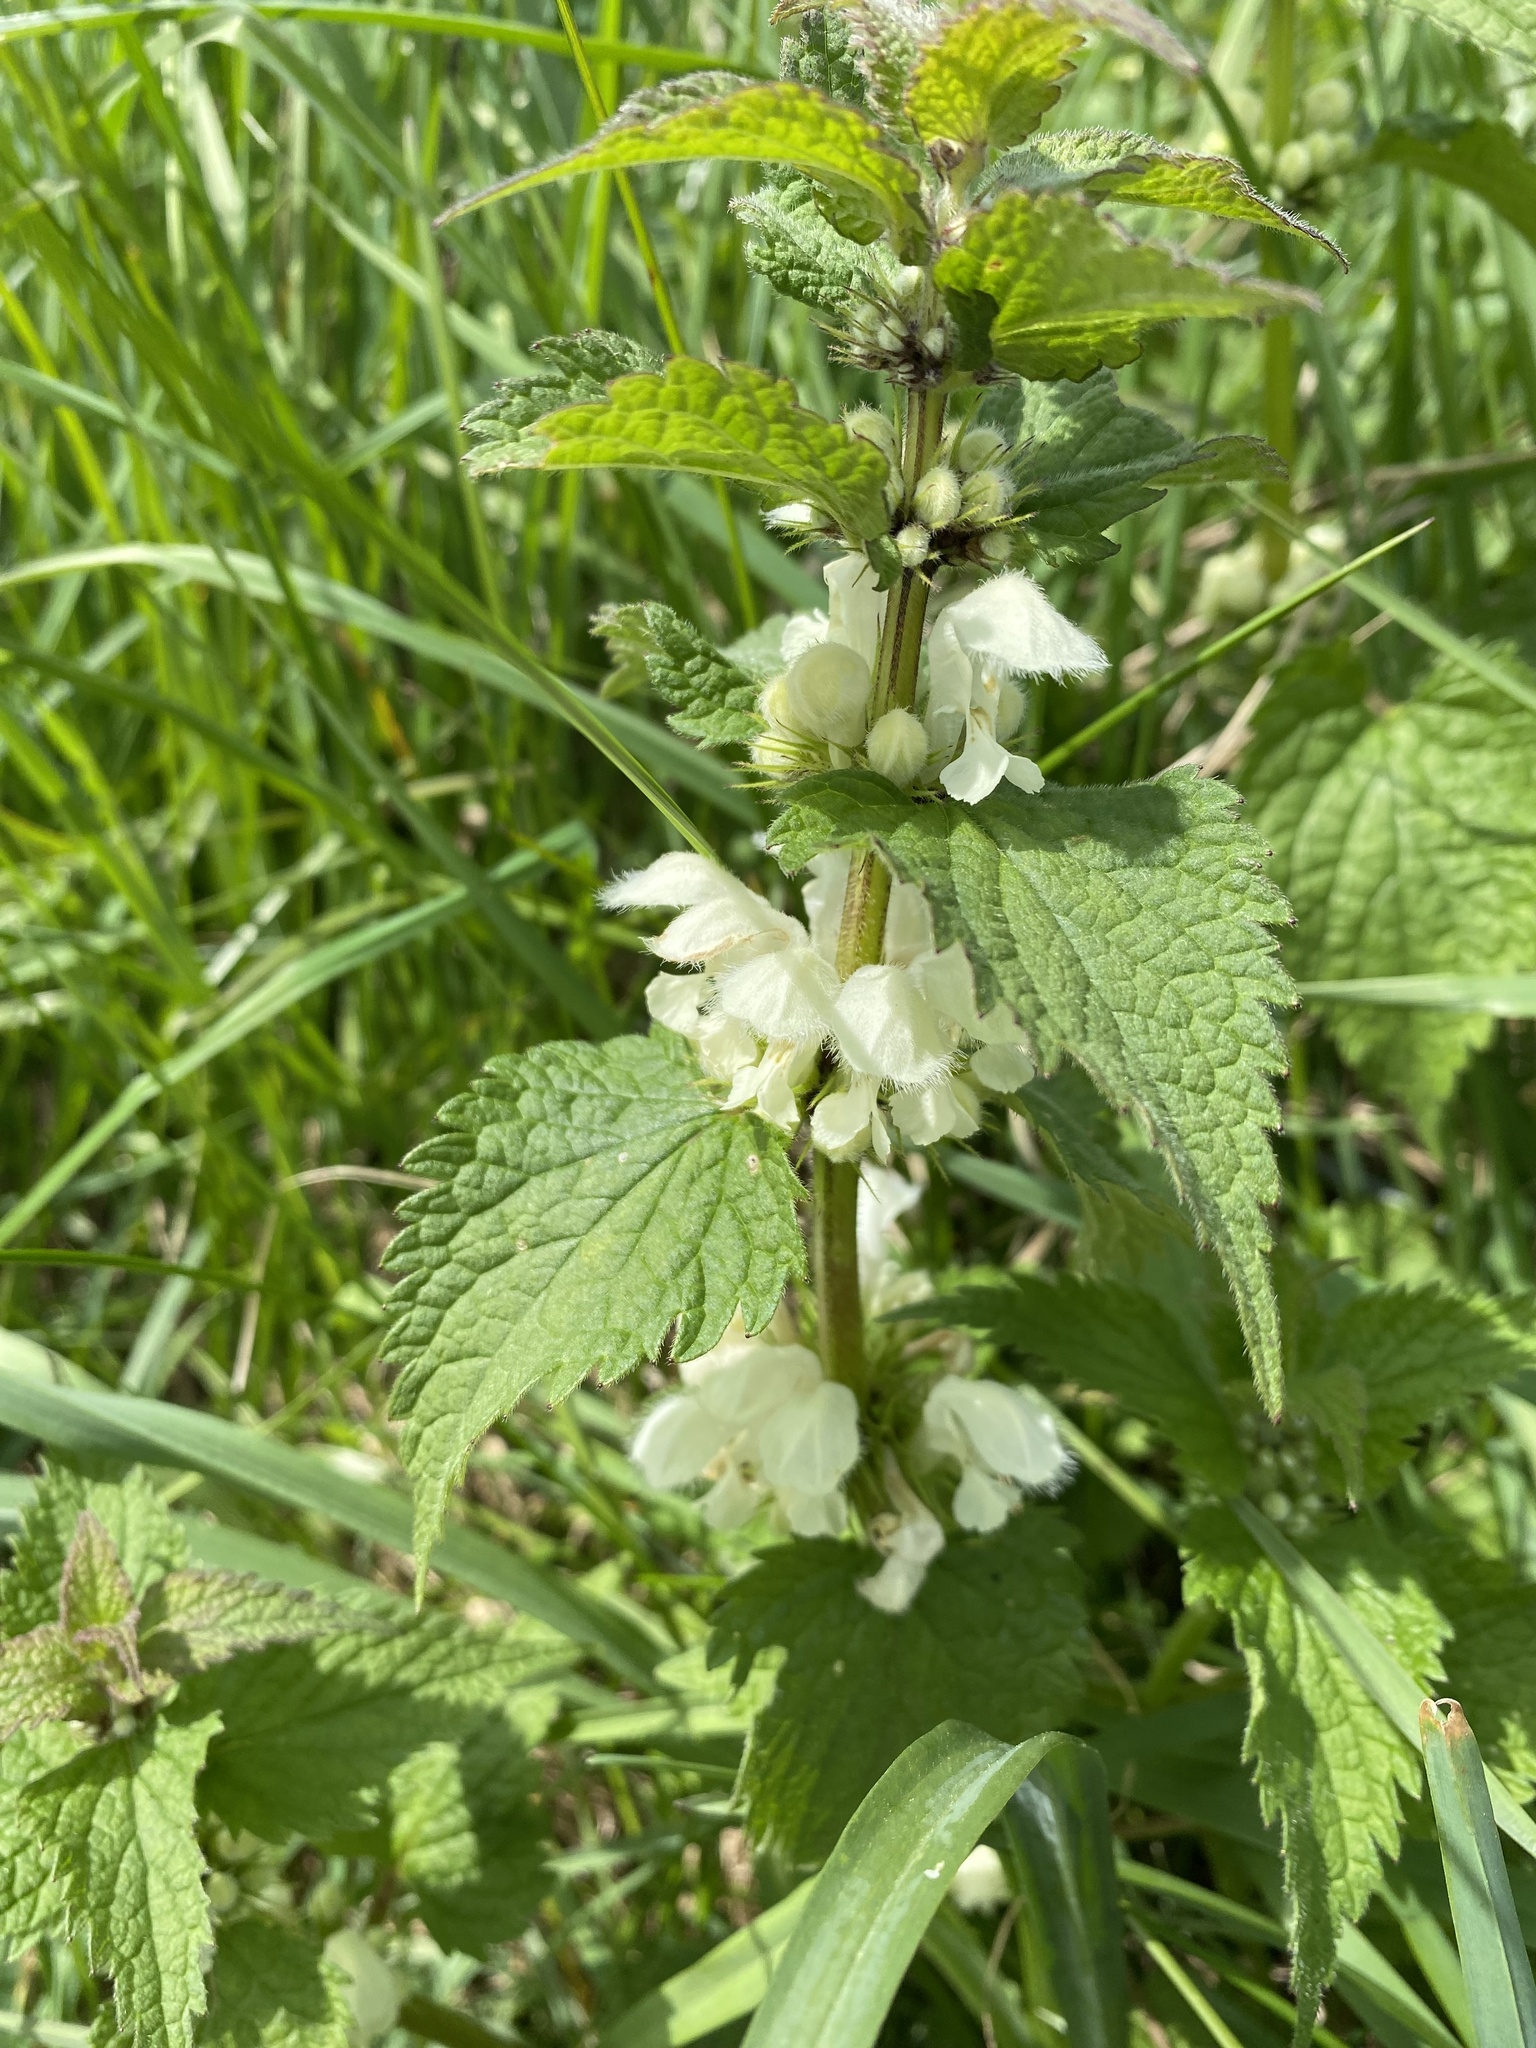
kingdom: Plantae
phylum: Tracheophyta
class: Magnoliopsida
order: Lamiales
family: Lamiaceae
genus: Lamium
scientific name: Lamium album
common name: White dead-nettle
